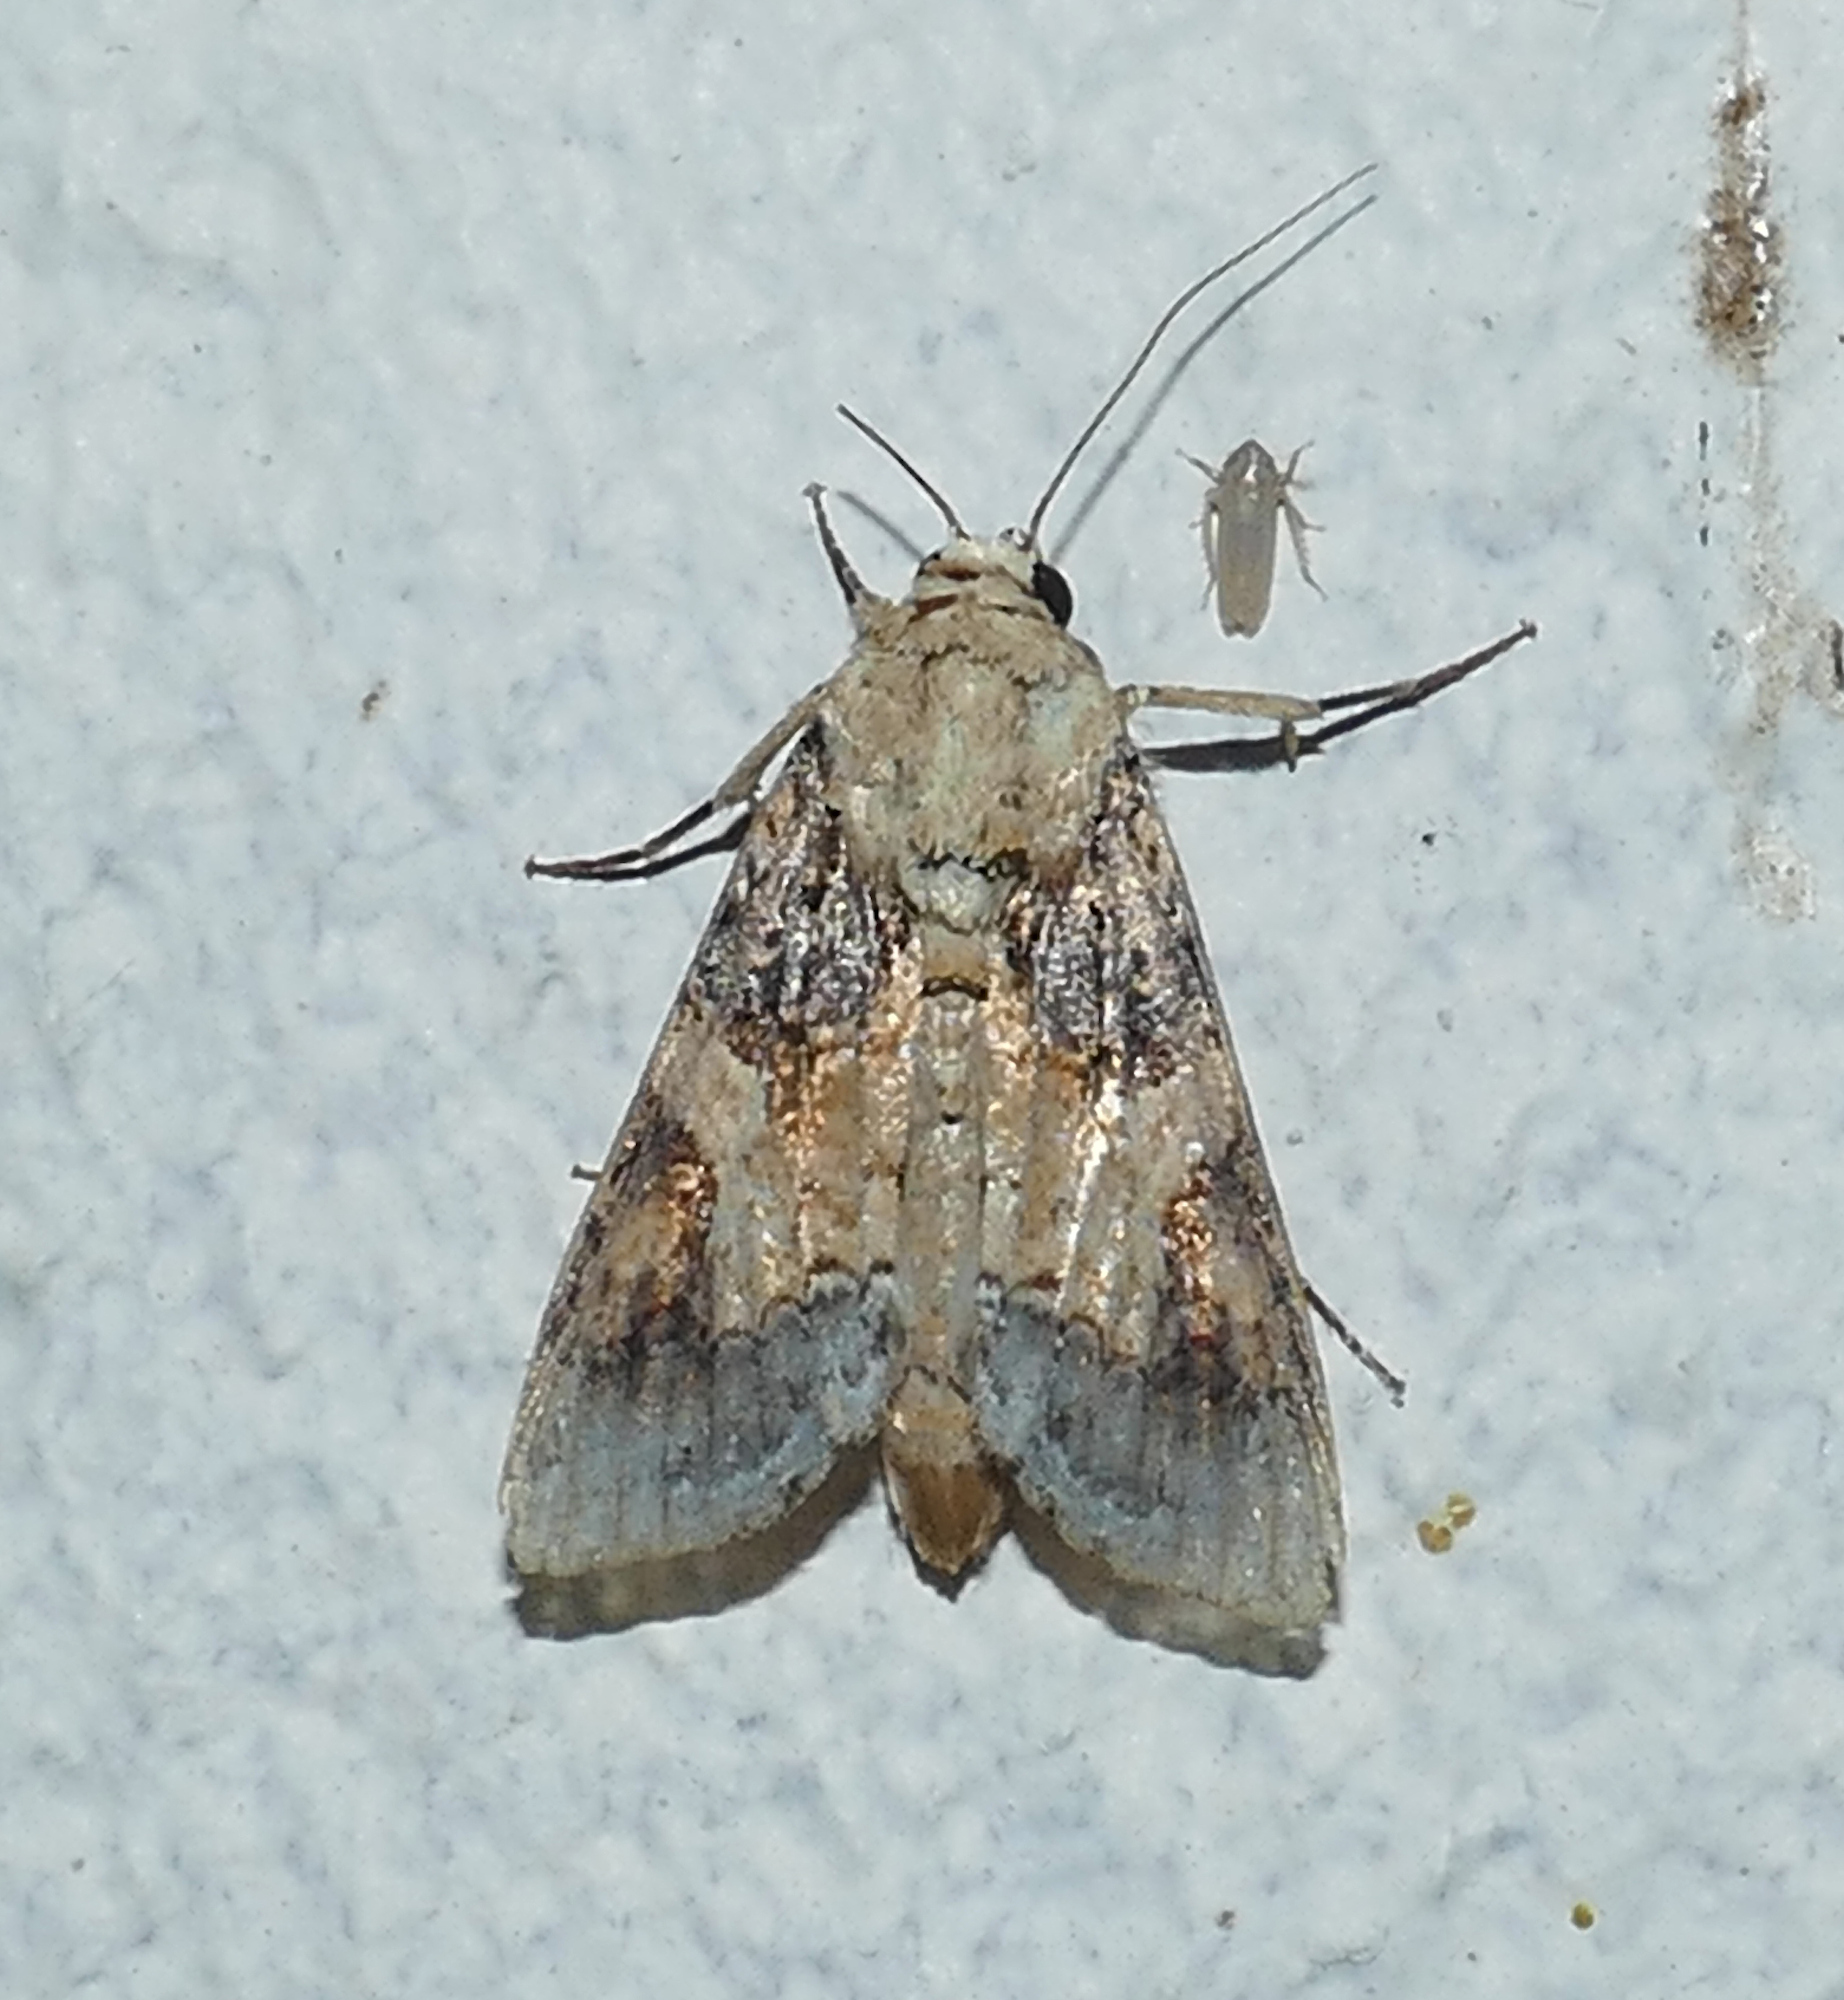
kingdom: Animalia
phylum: Arthropoda
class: Insecta
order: Lepidoptera
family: Noctuidae
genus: Spodoptera
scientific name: Spodoptera latifascia
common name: Velvet armyworm moth
